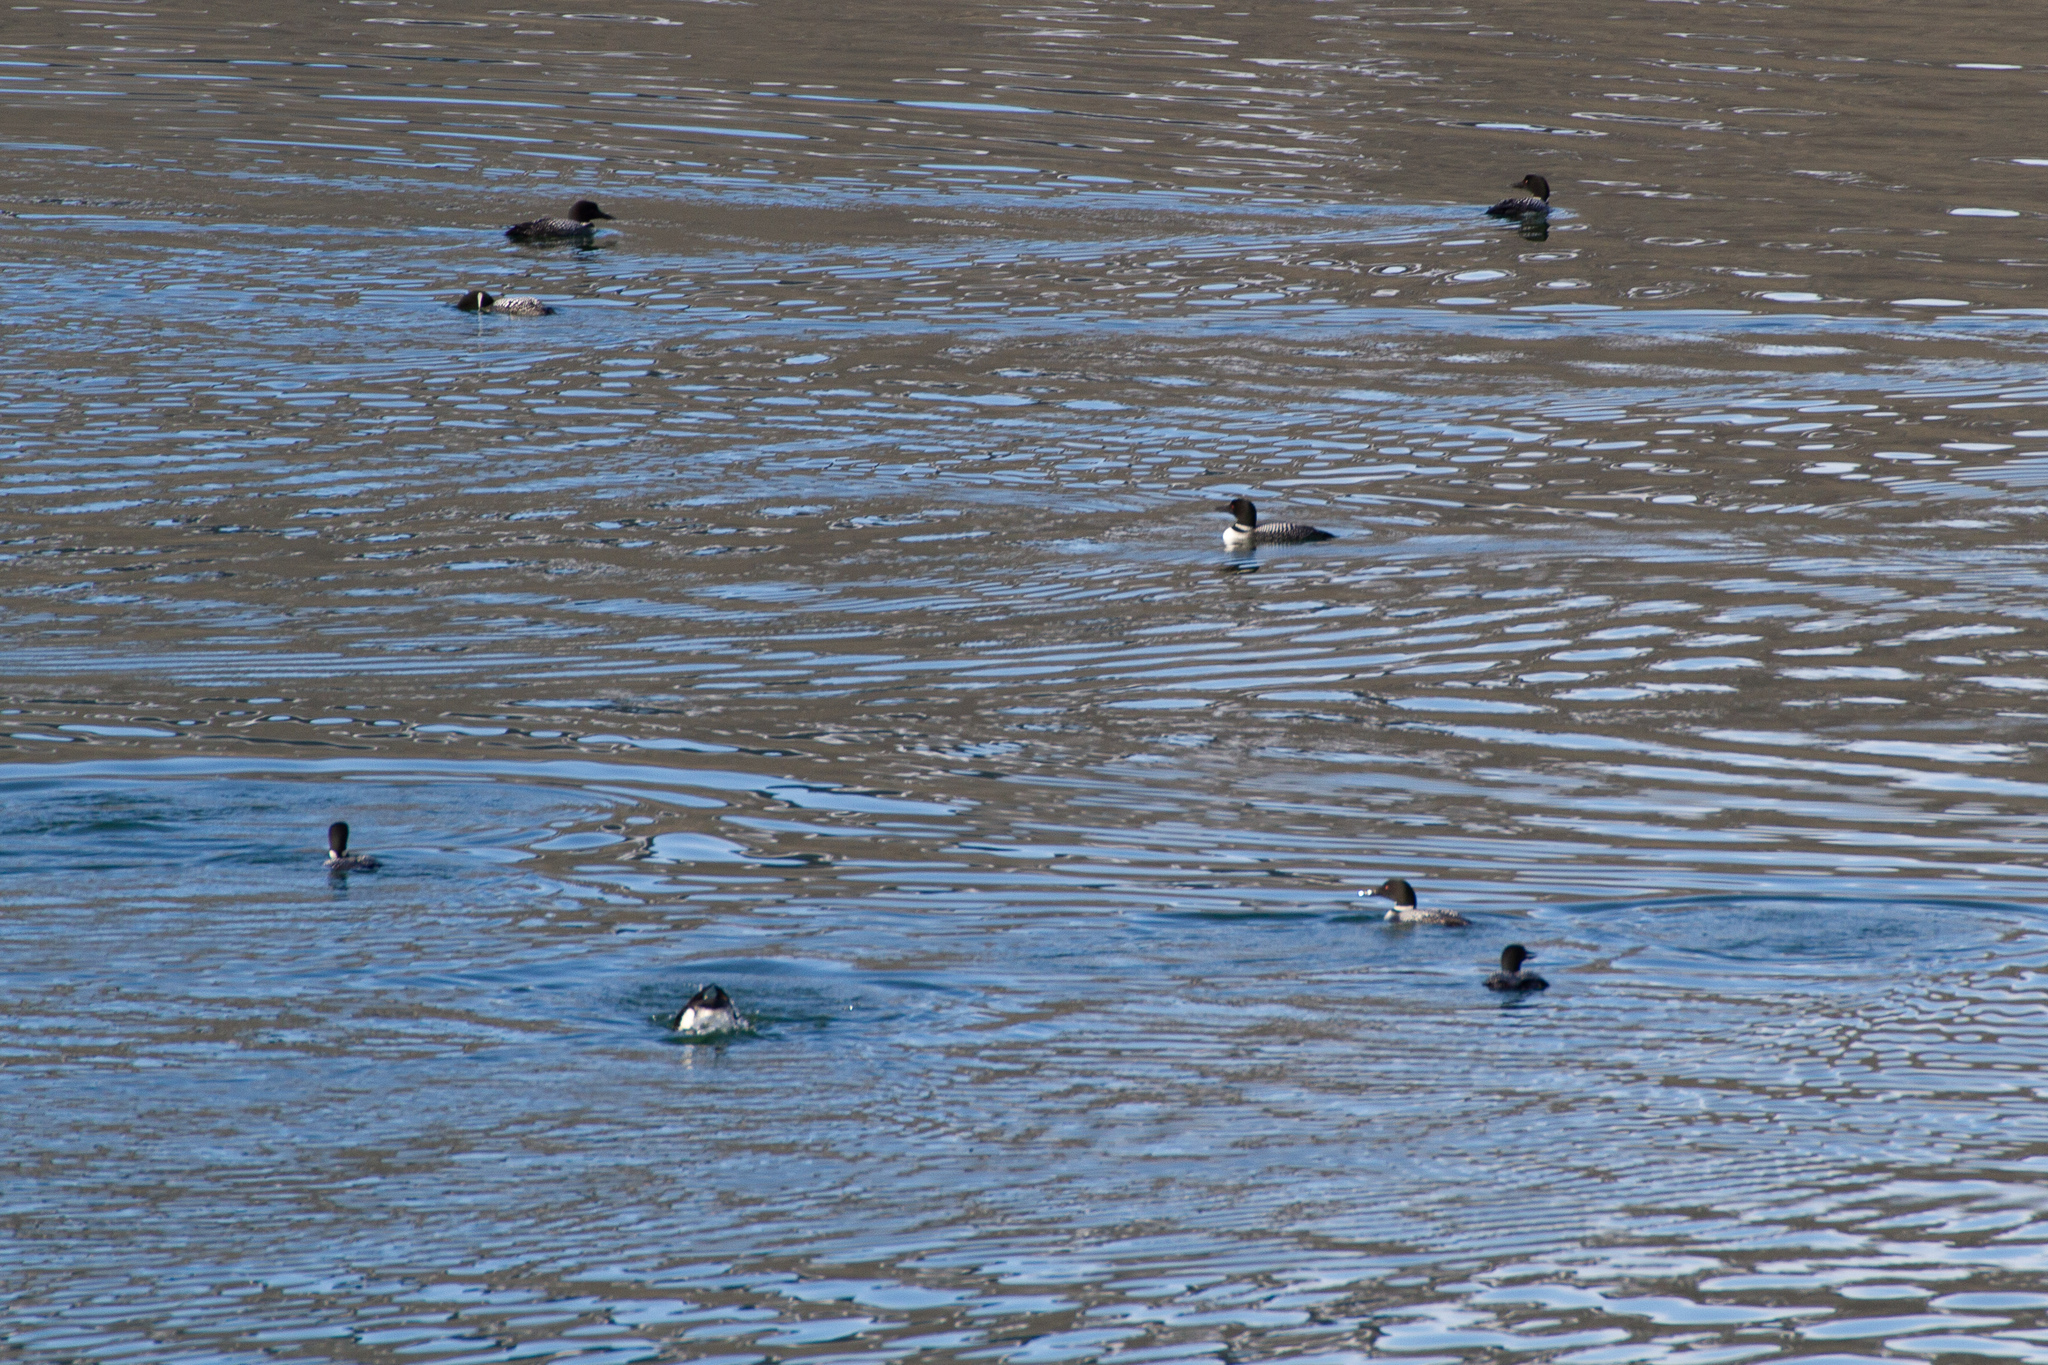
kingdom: Animalia
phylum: Chordata
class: Aves
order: Gaviiformes
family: Gaviidae
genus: Gavia
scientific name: Gavia immer
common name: Common loon
